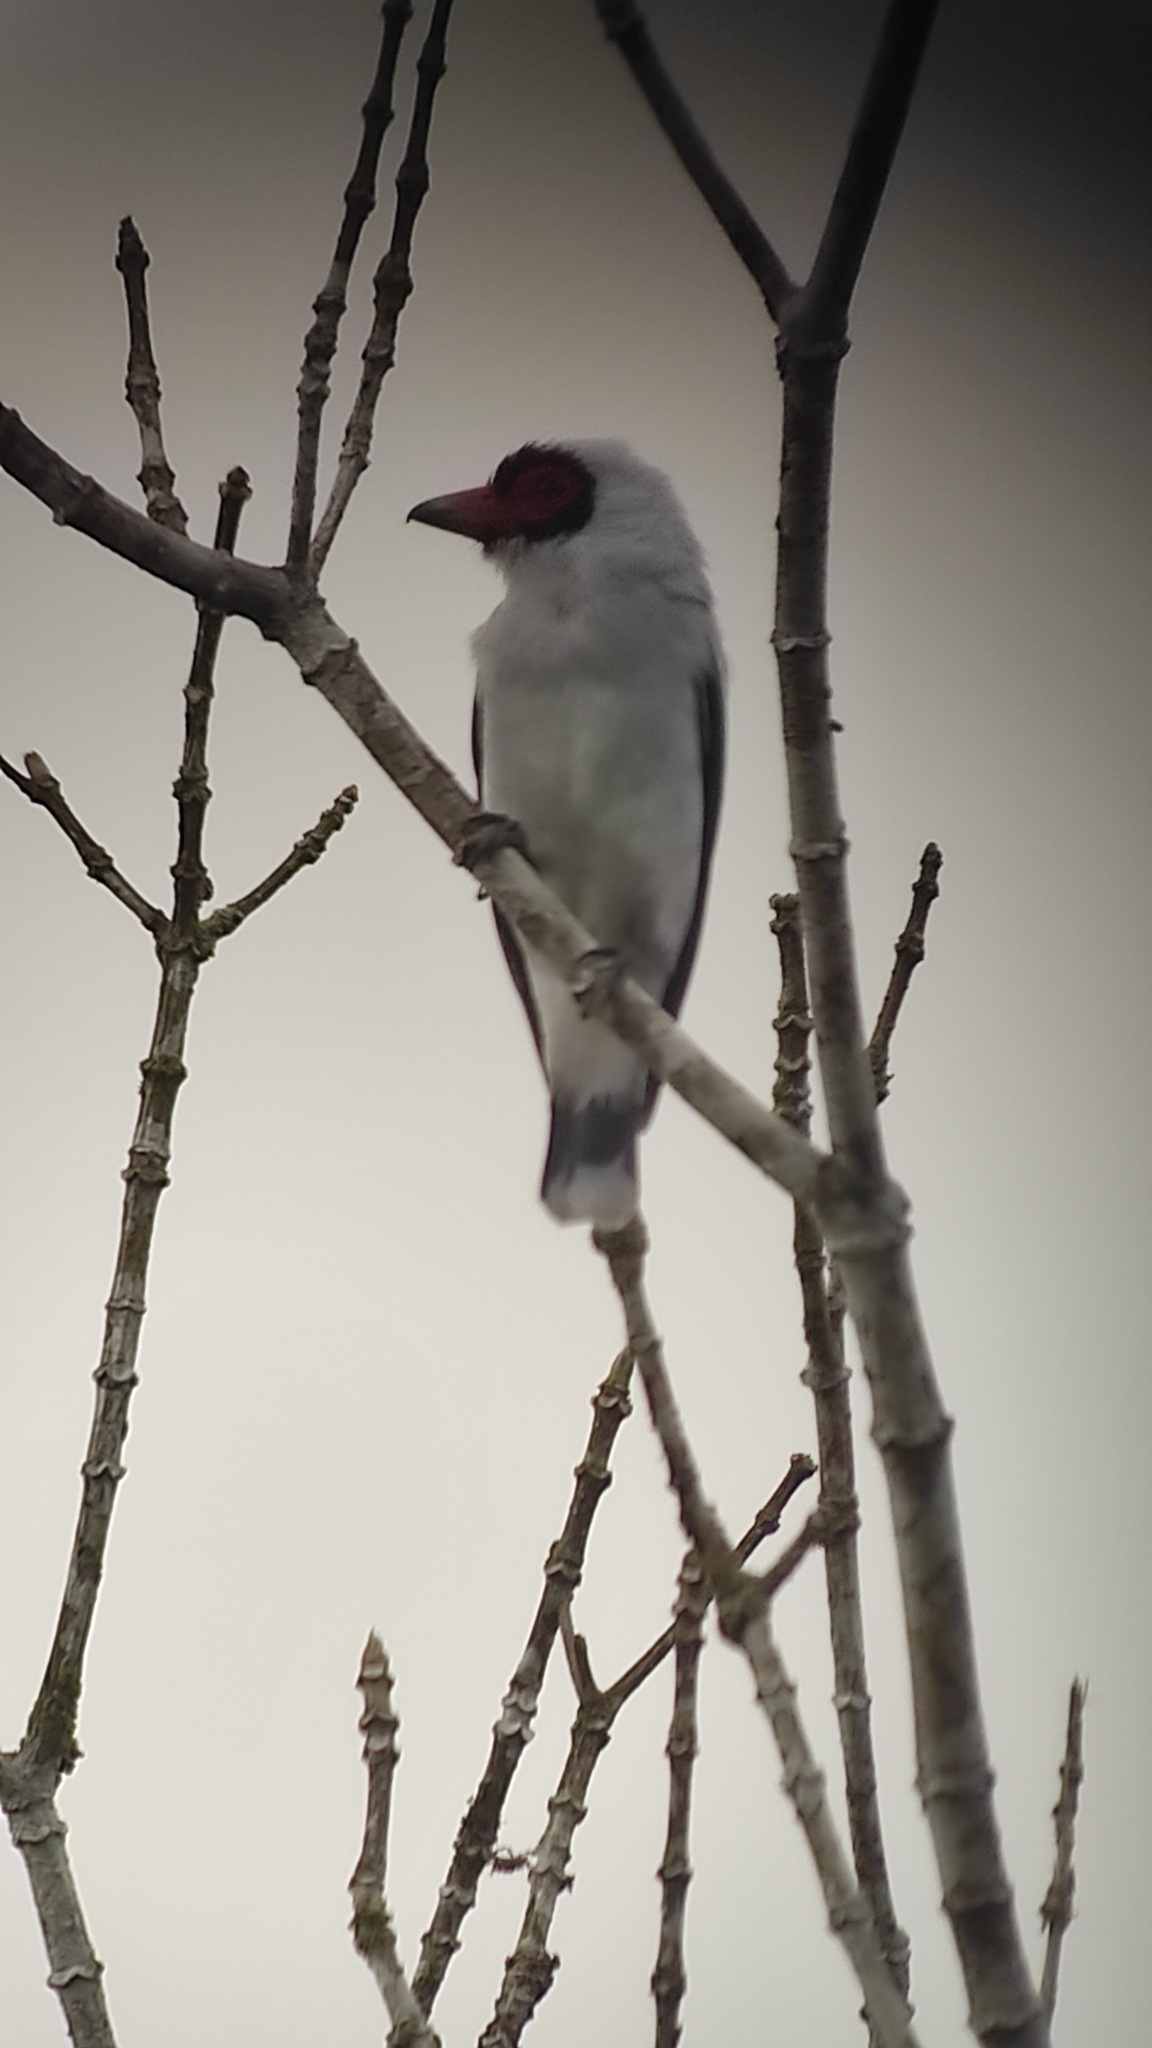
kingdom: Animalia
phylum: Chordata
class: Aves
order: Passeriformes
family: Cotingidae
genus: Tityra
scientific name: Tityra semifasciata
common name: Masked tityra
